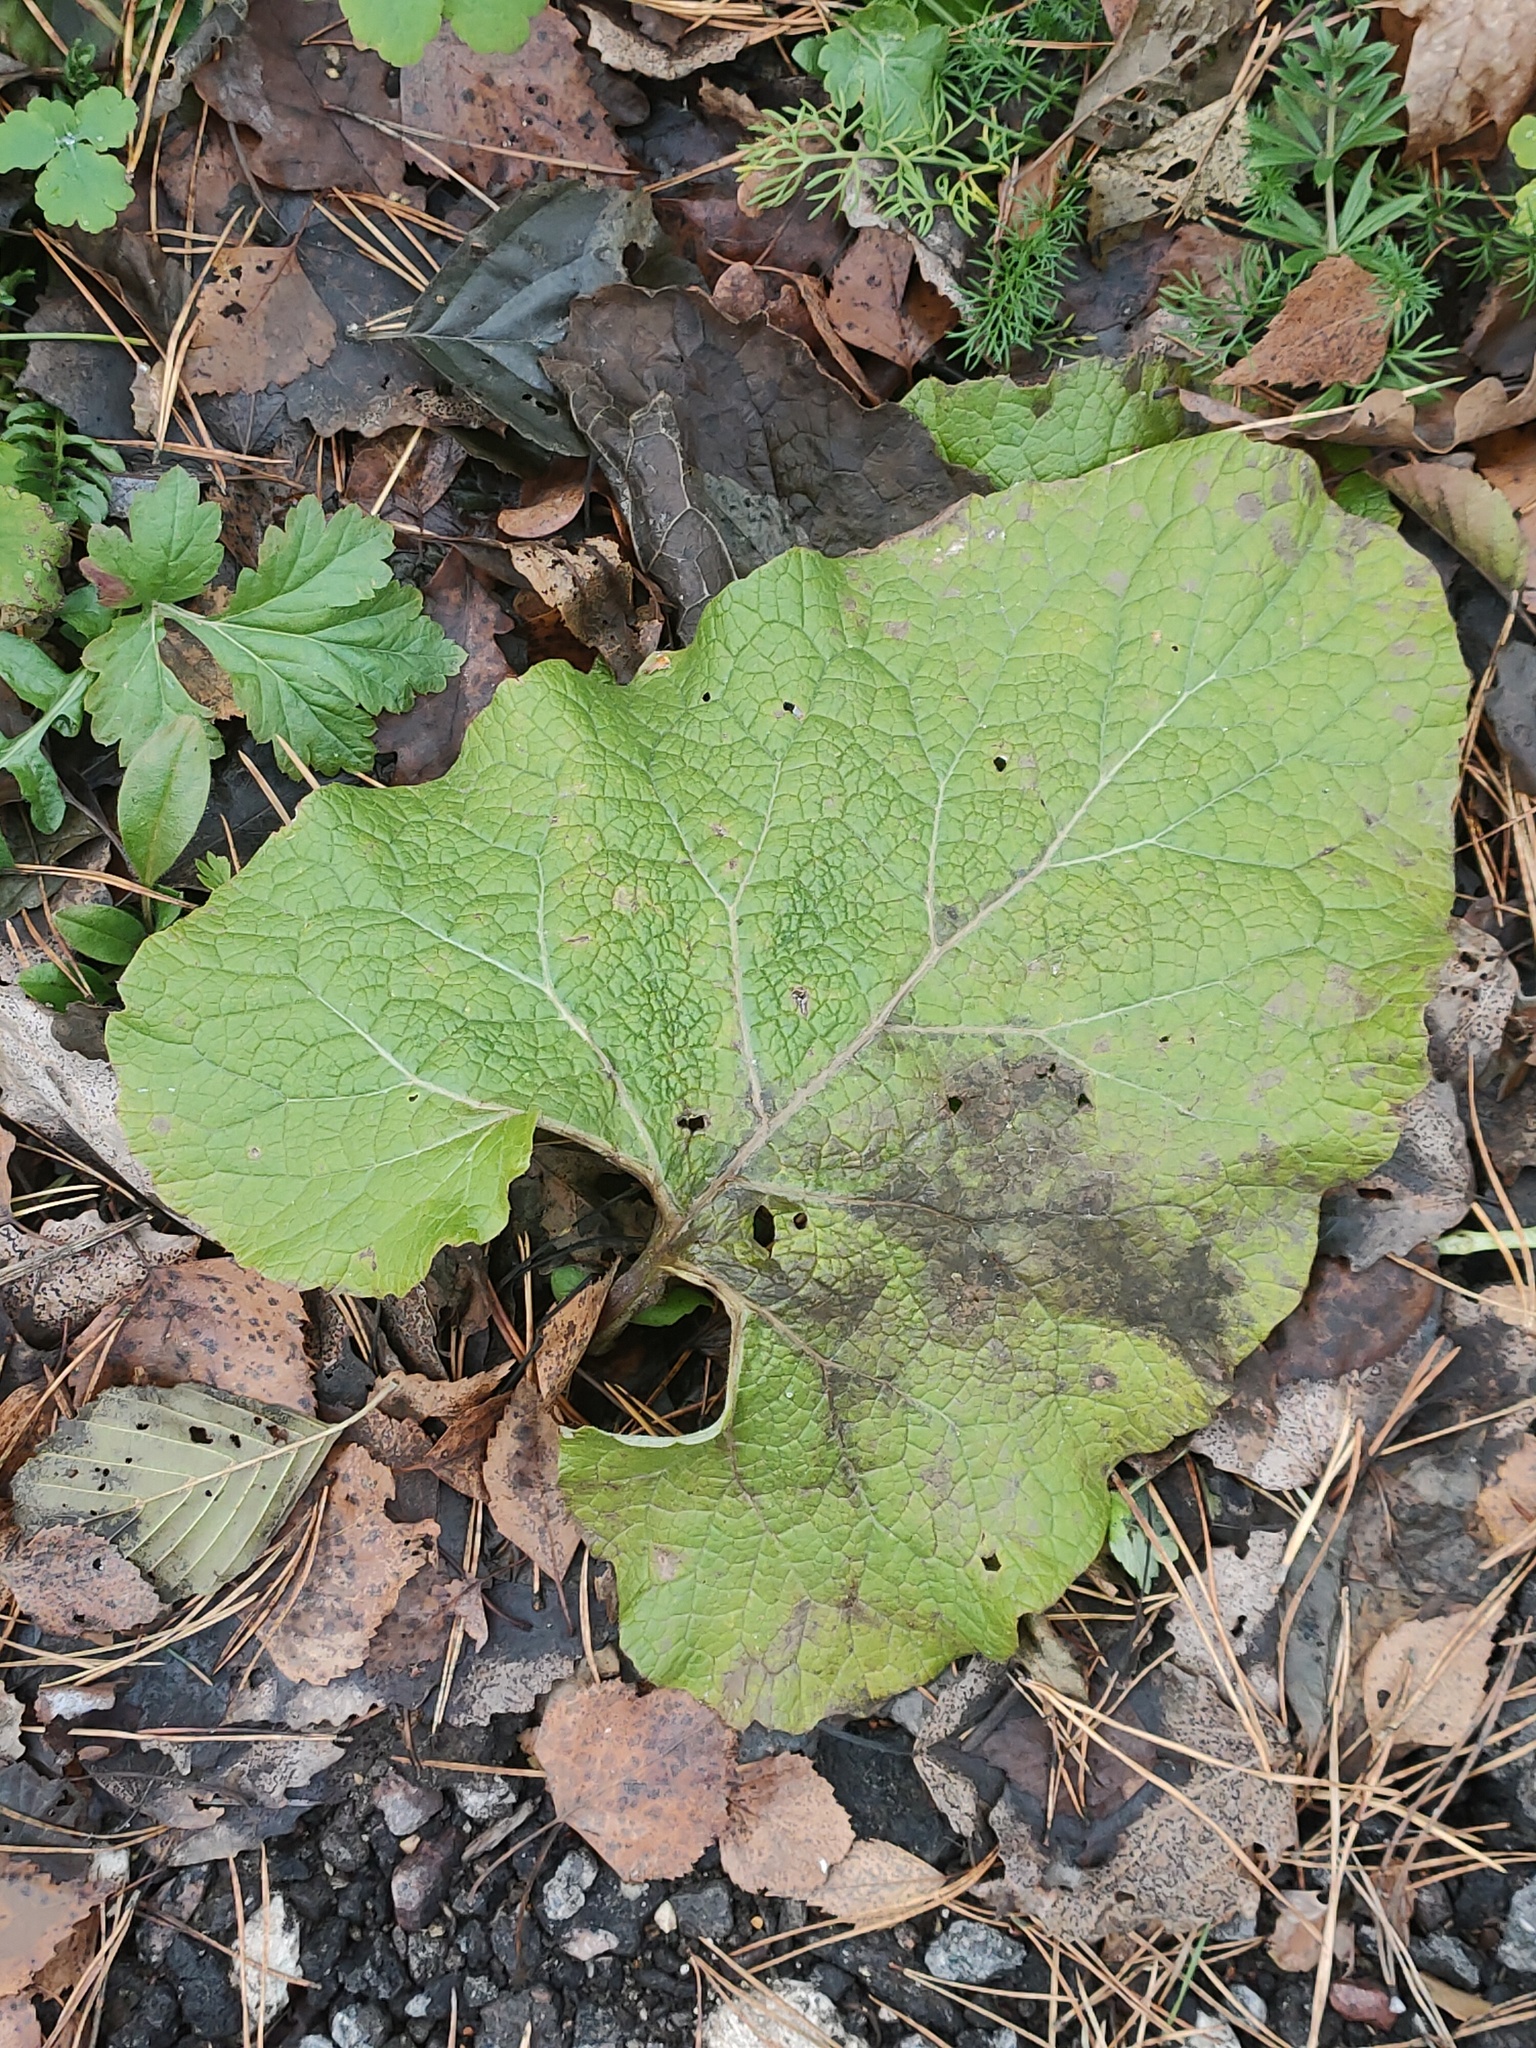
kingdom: Plantae
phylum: Tracheophyta
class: Magnoliopsida
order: Asterales
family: Asteraceae
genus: Arctium
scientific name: Arctium
